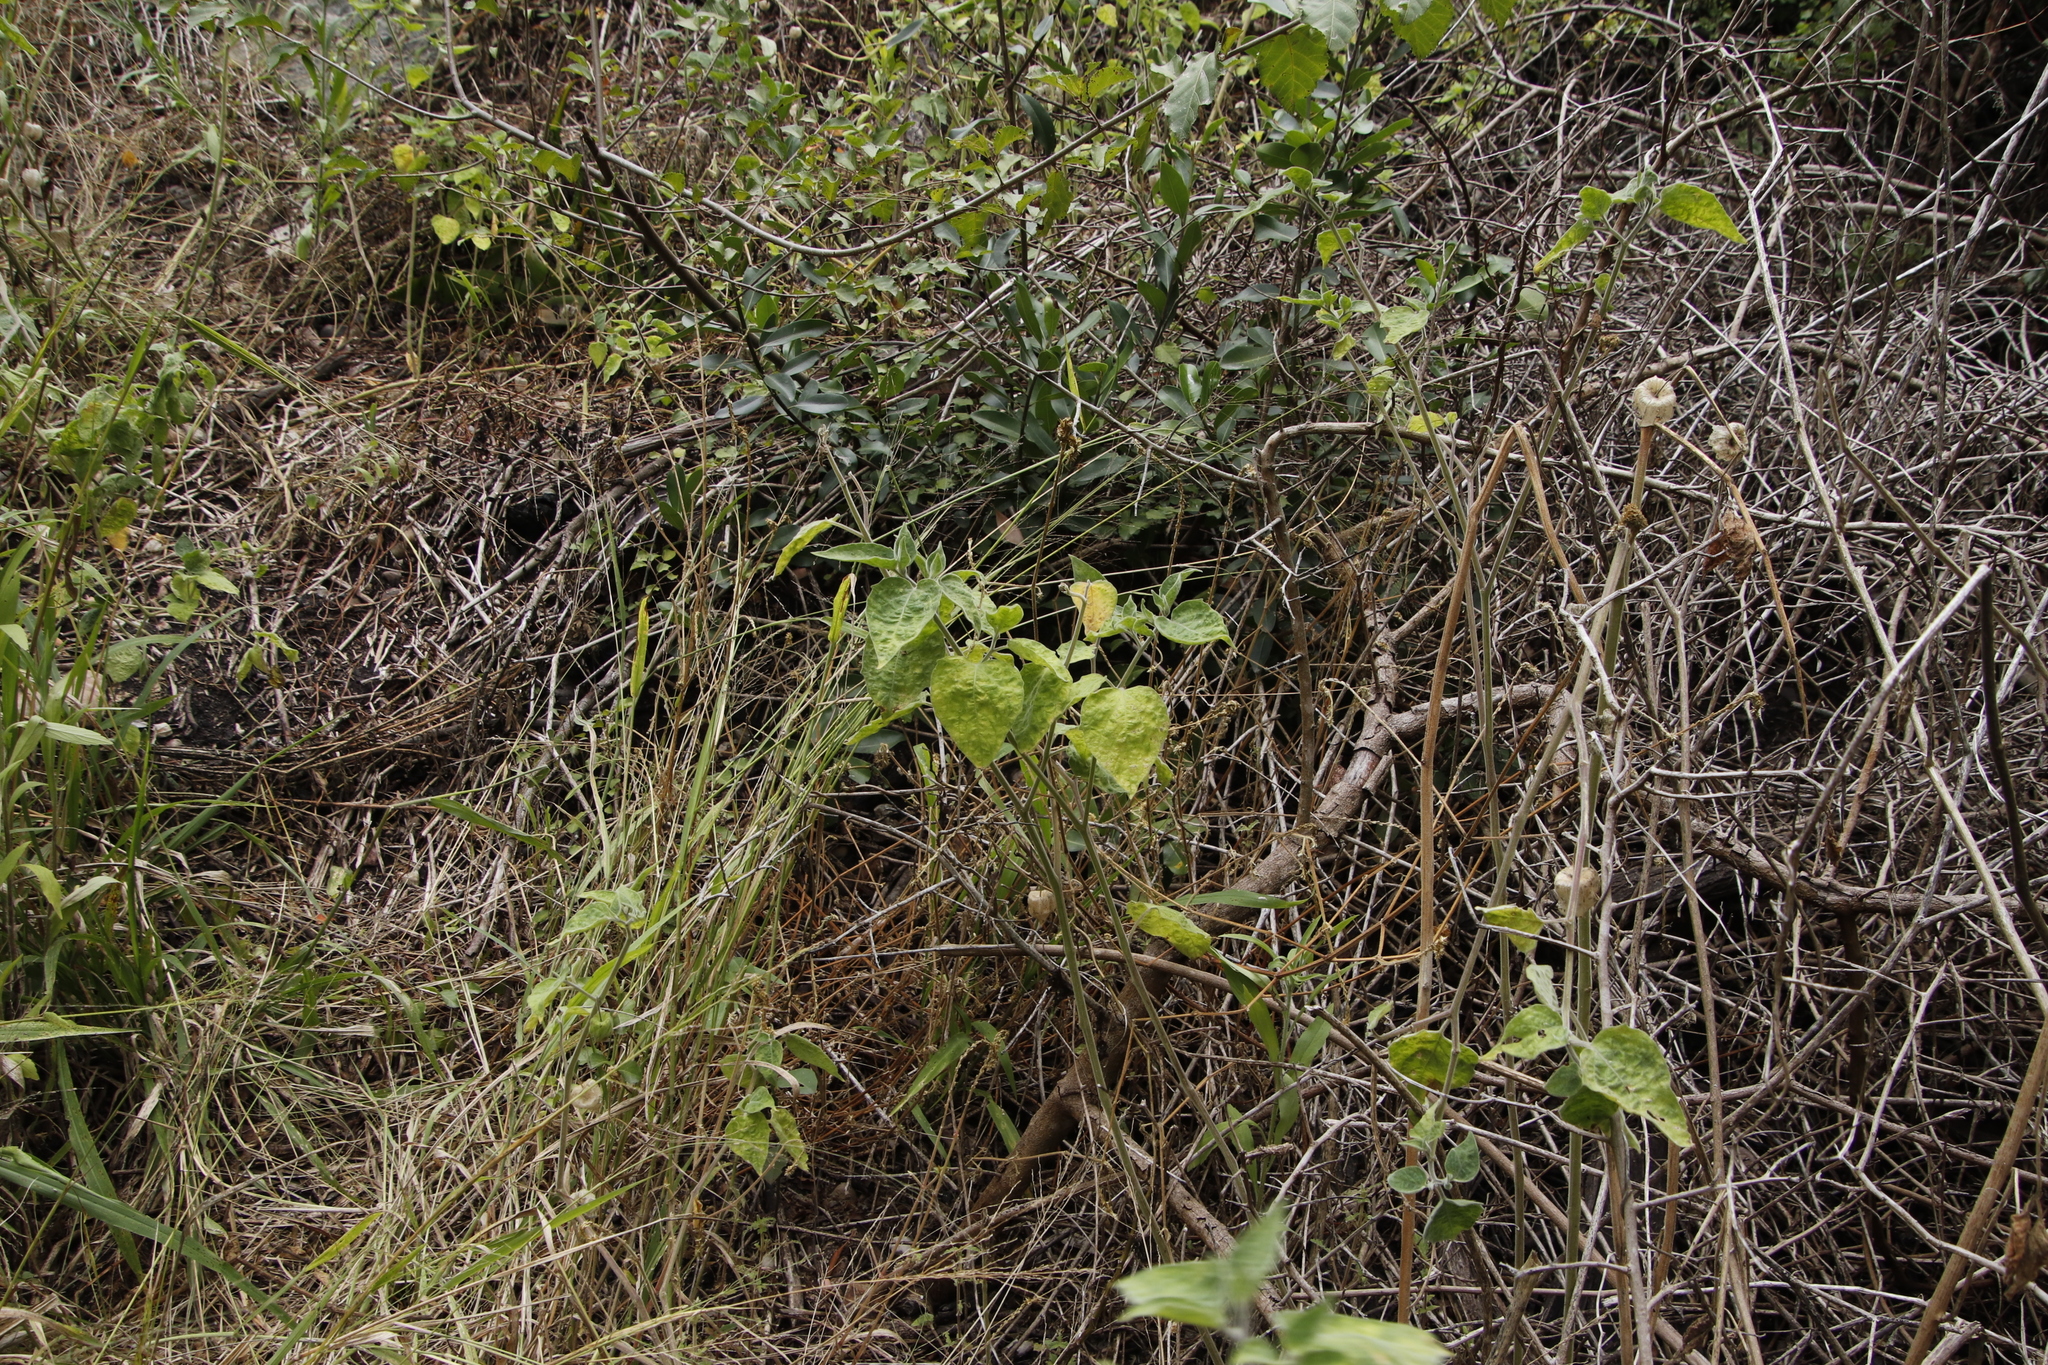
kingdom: Plantae
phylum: Tracheophyta
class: Magnoliopsida
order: Solanales
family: Solanaceae
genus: Physalis
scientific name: Physalis peruviana
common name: Cape-gooseberry
